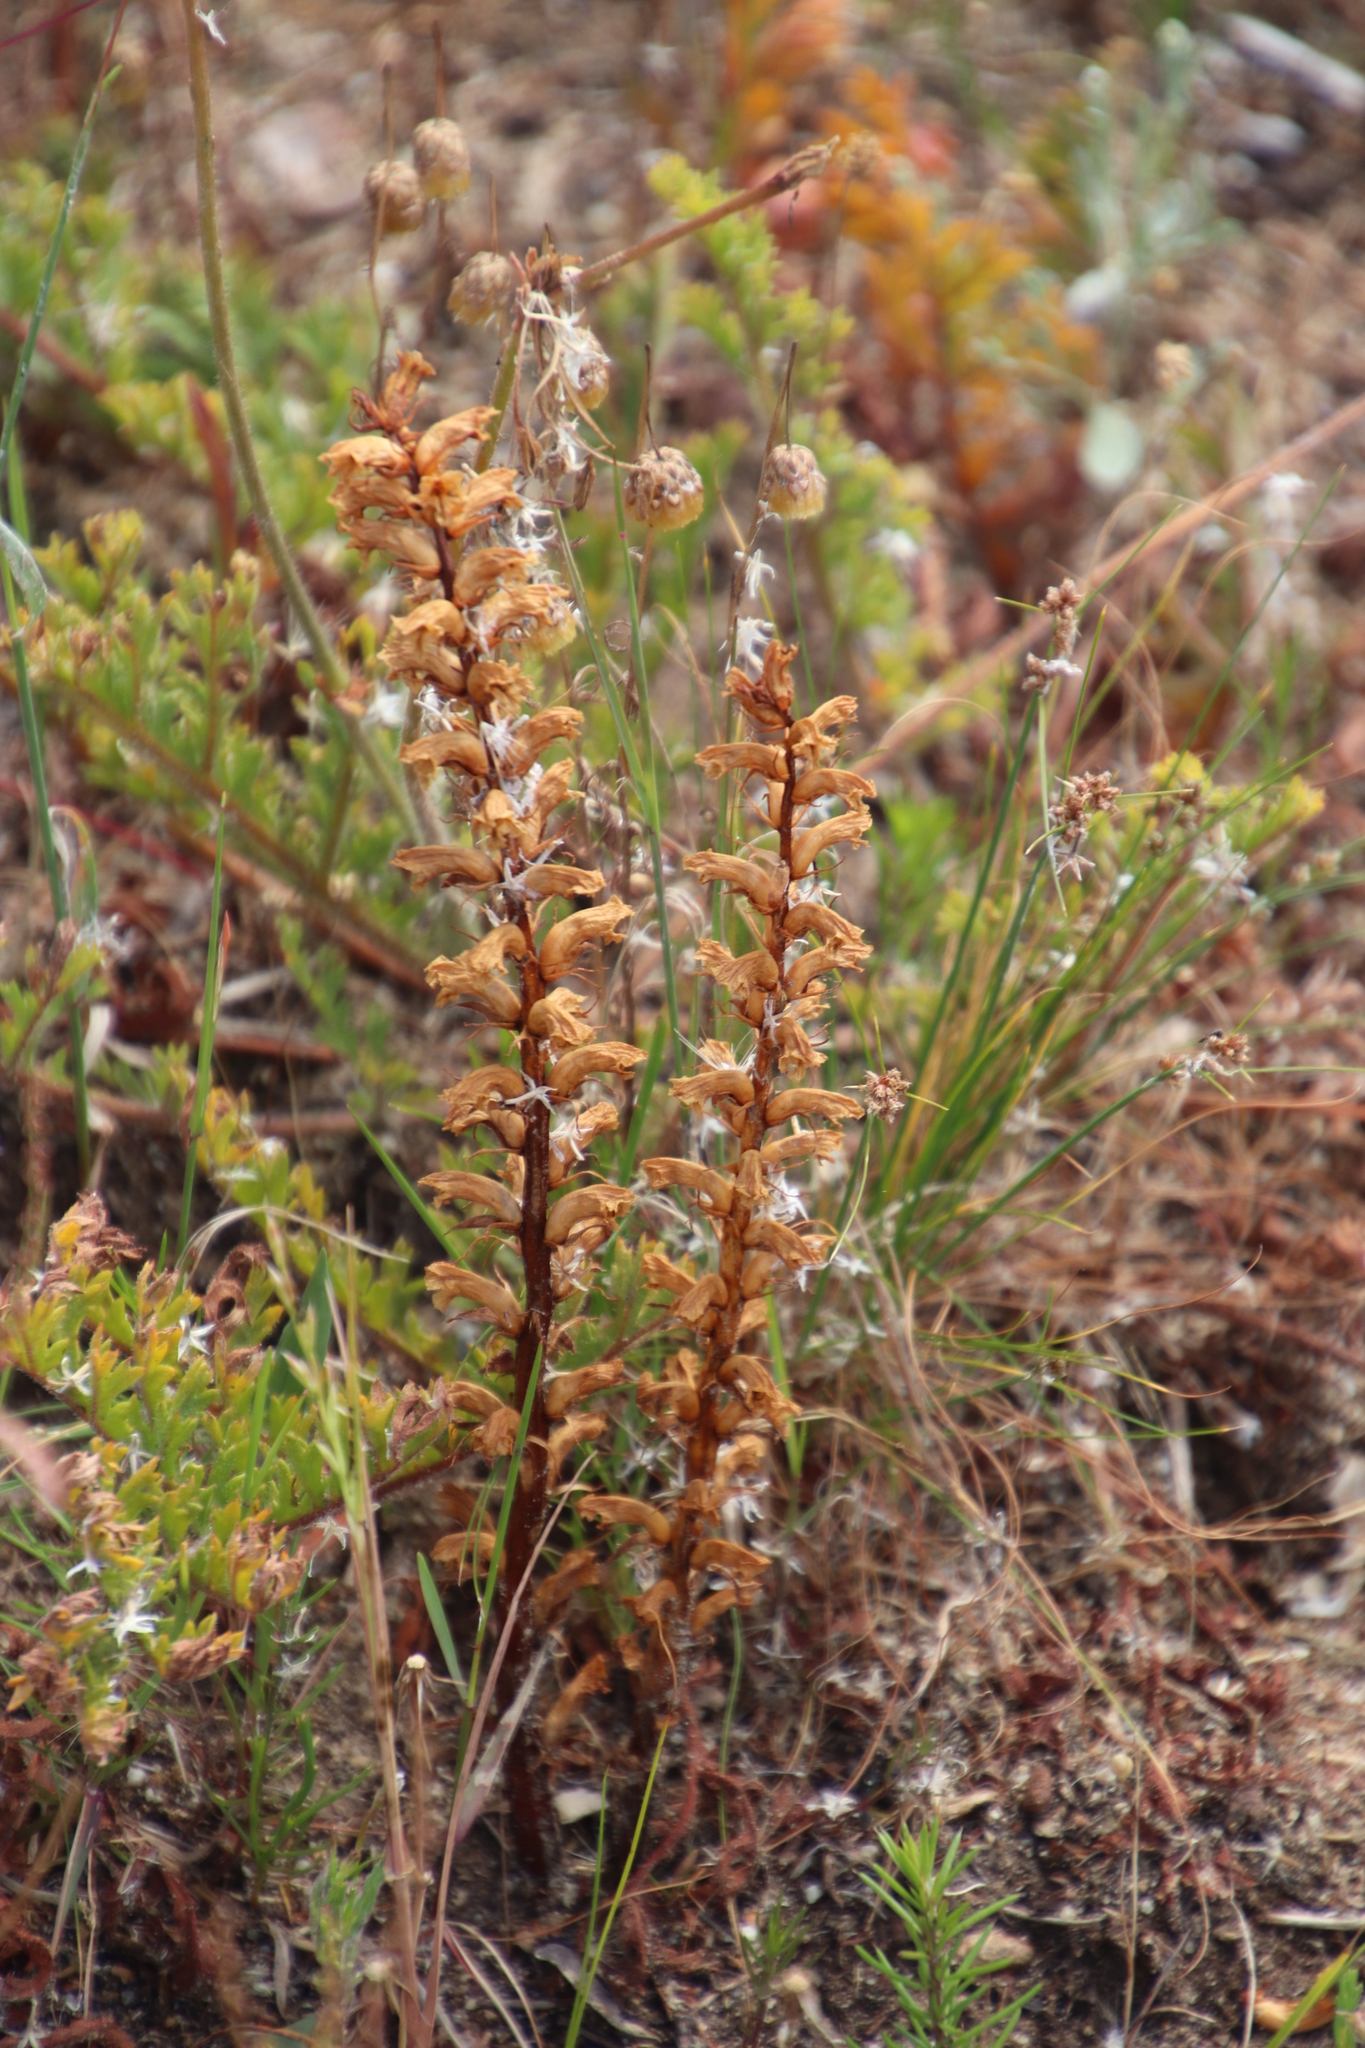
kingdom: Plantae
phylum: Tracheophyta
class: Magnoliopsida
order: Lamiales
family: Orobanchaceae
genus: Orobanche
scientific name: Orobanche minor
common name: Common broomrape
